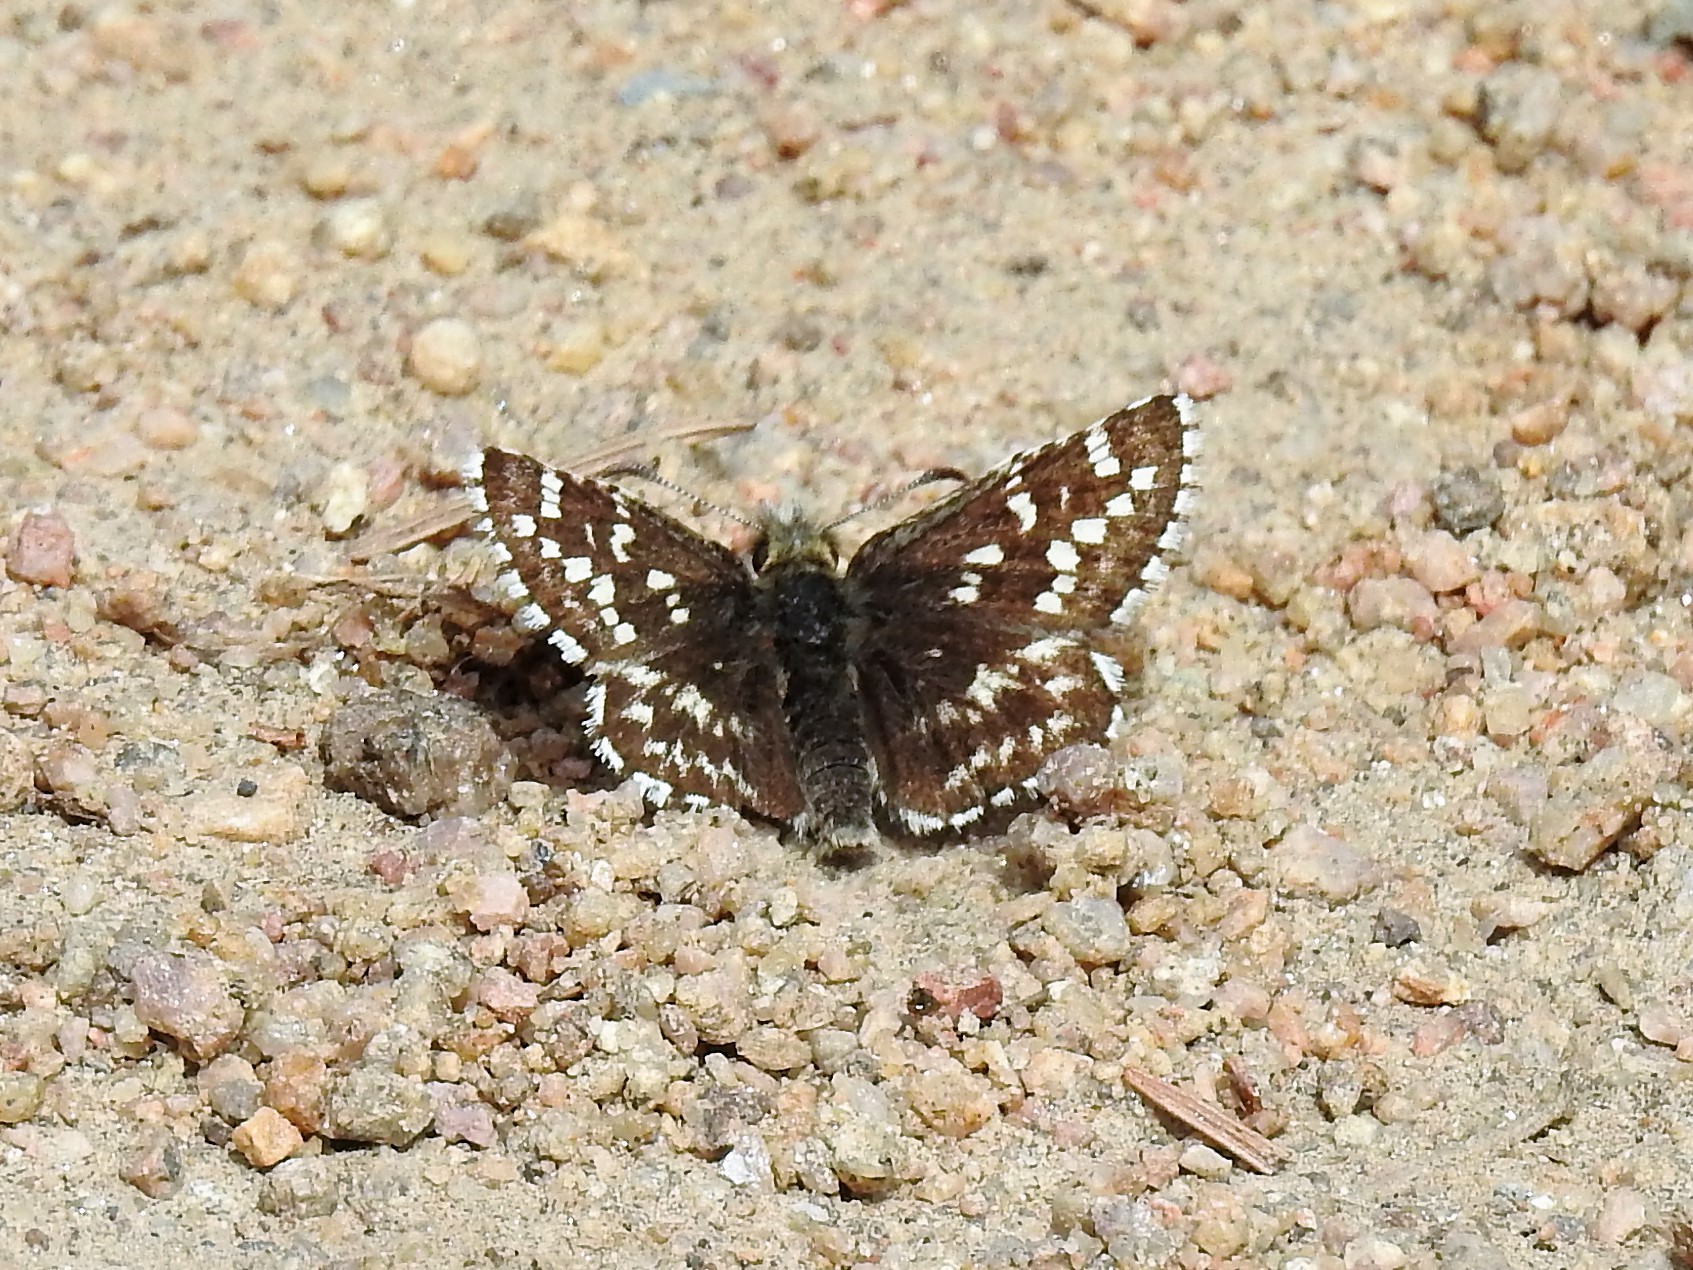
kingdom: Animalia
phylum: Arthropoda
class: Insecta
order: Lepidoptera
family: Hesperiidae
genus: Pyrgus
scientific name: Pyrgus ruralis
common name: Two-banded checkered-skipper
